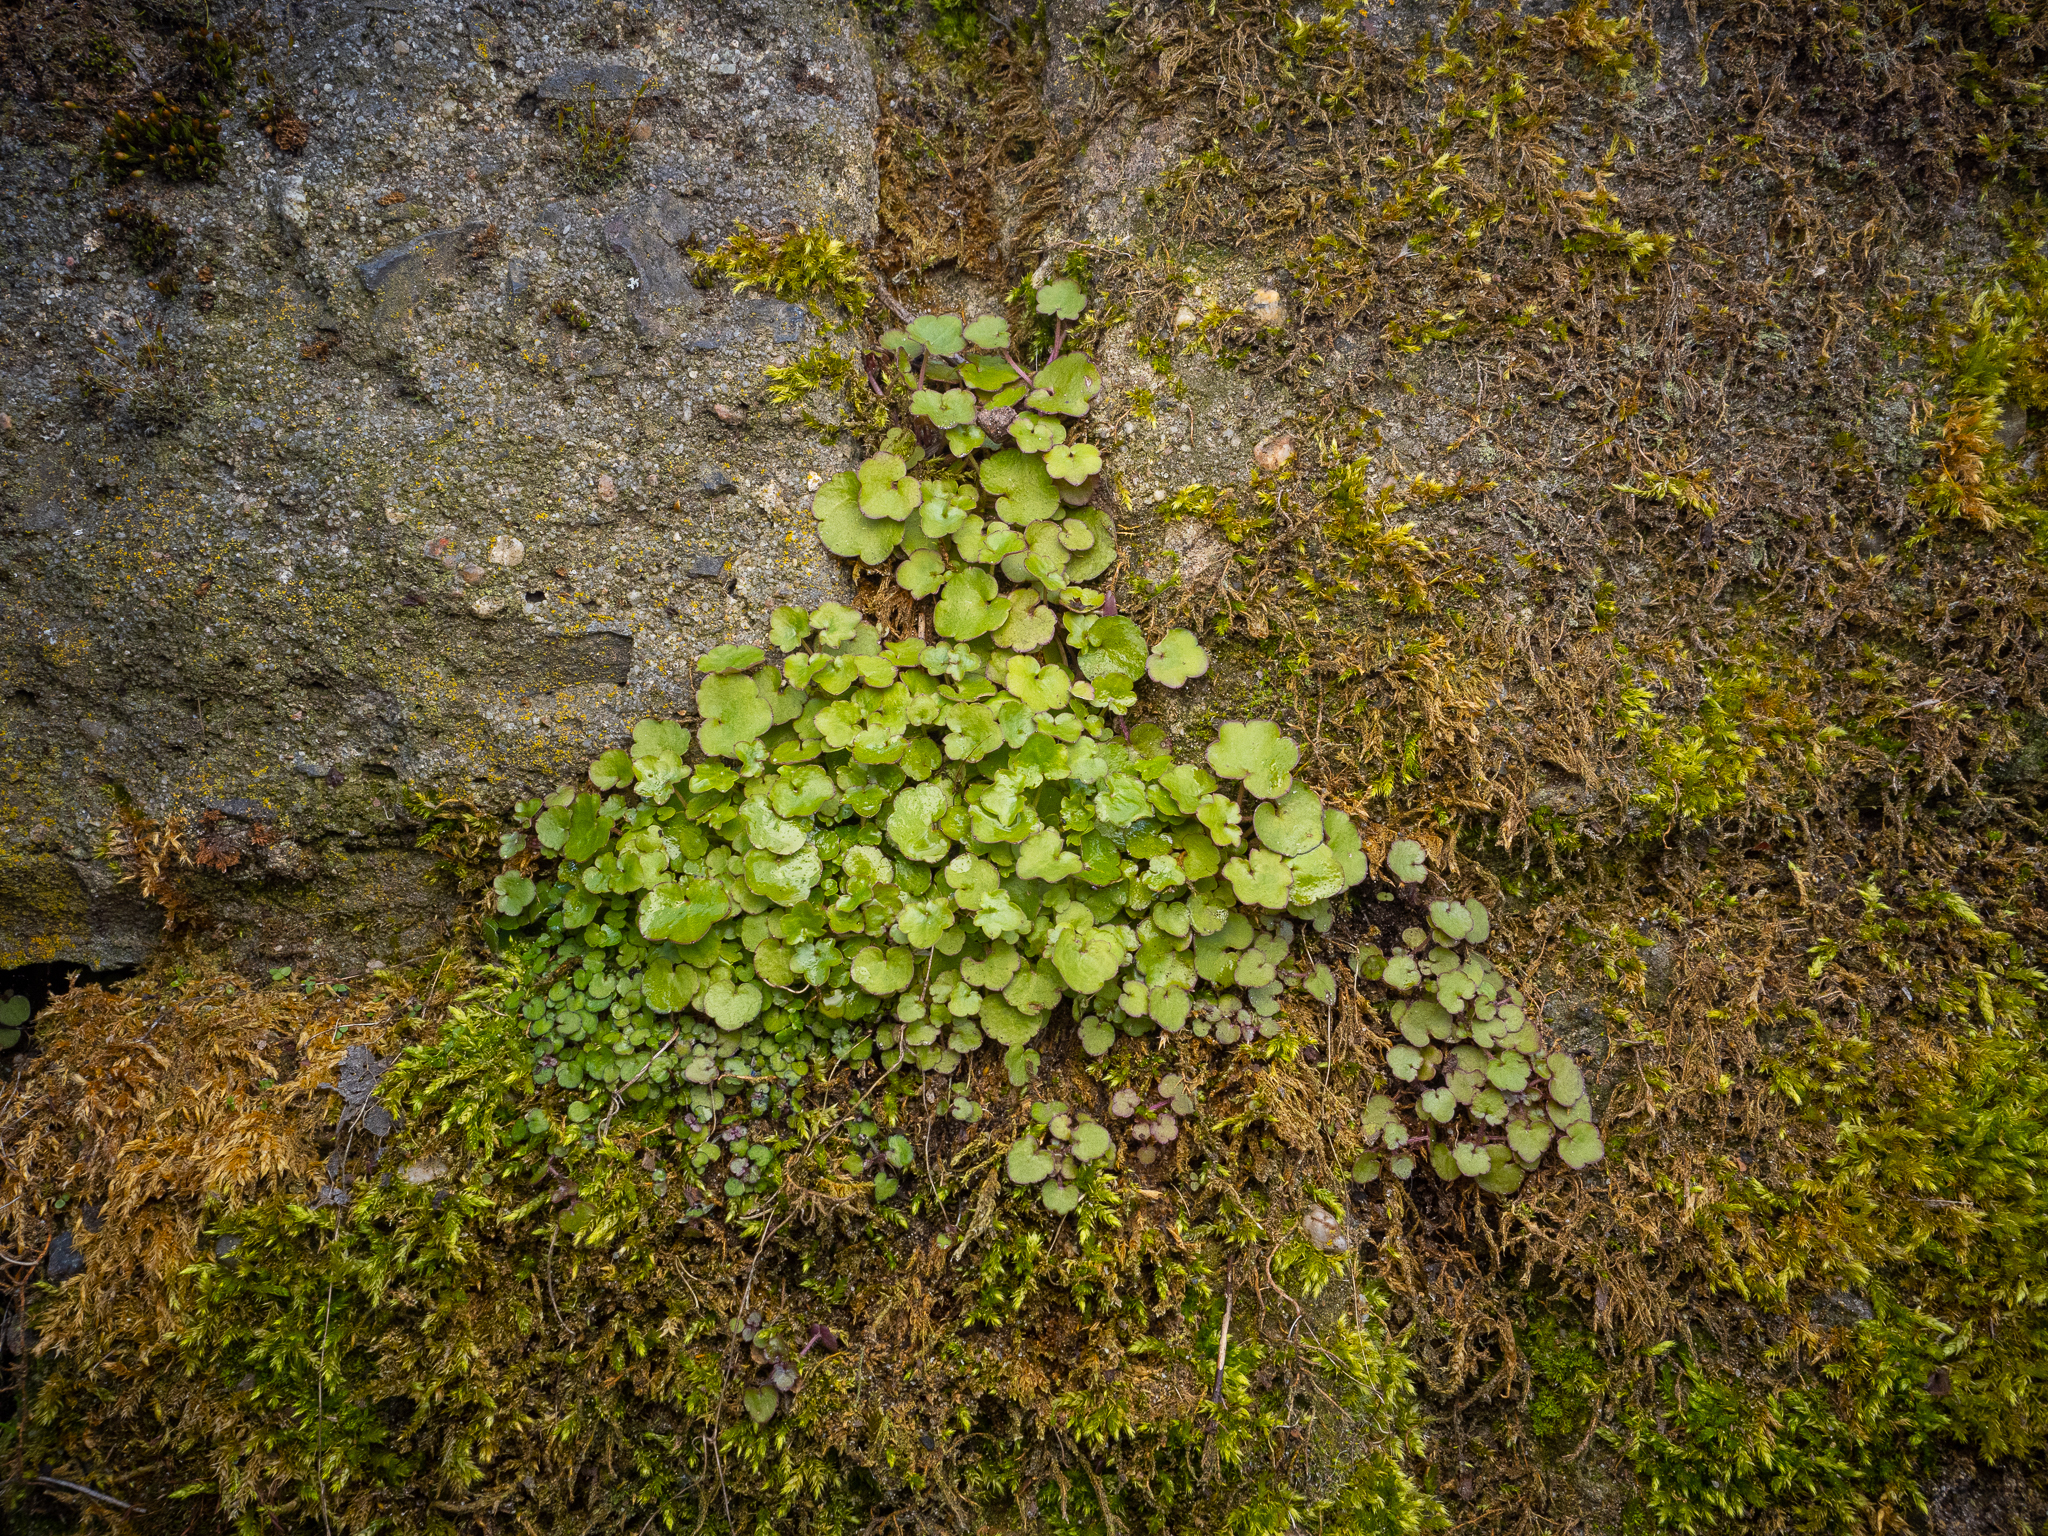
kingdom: Plantae
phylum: Tracheophyta
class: Magnoliopsida
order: Lamiales
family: Plantaginaceae
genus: Cymbalaria
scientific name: Cymbalaria muralis
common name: Ivy-leaved toadflax
